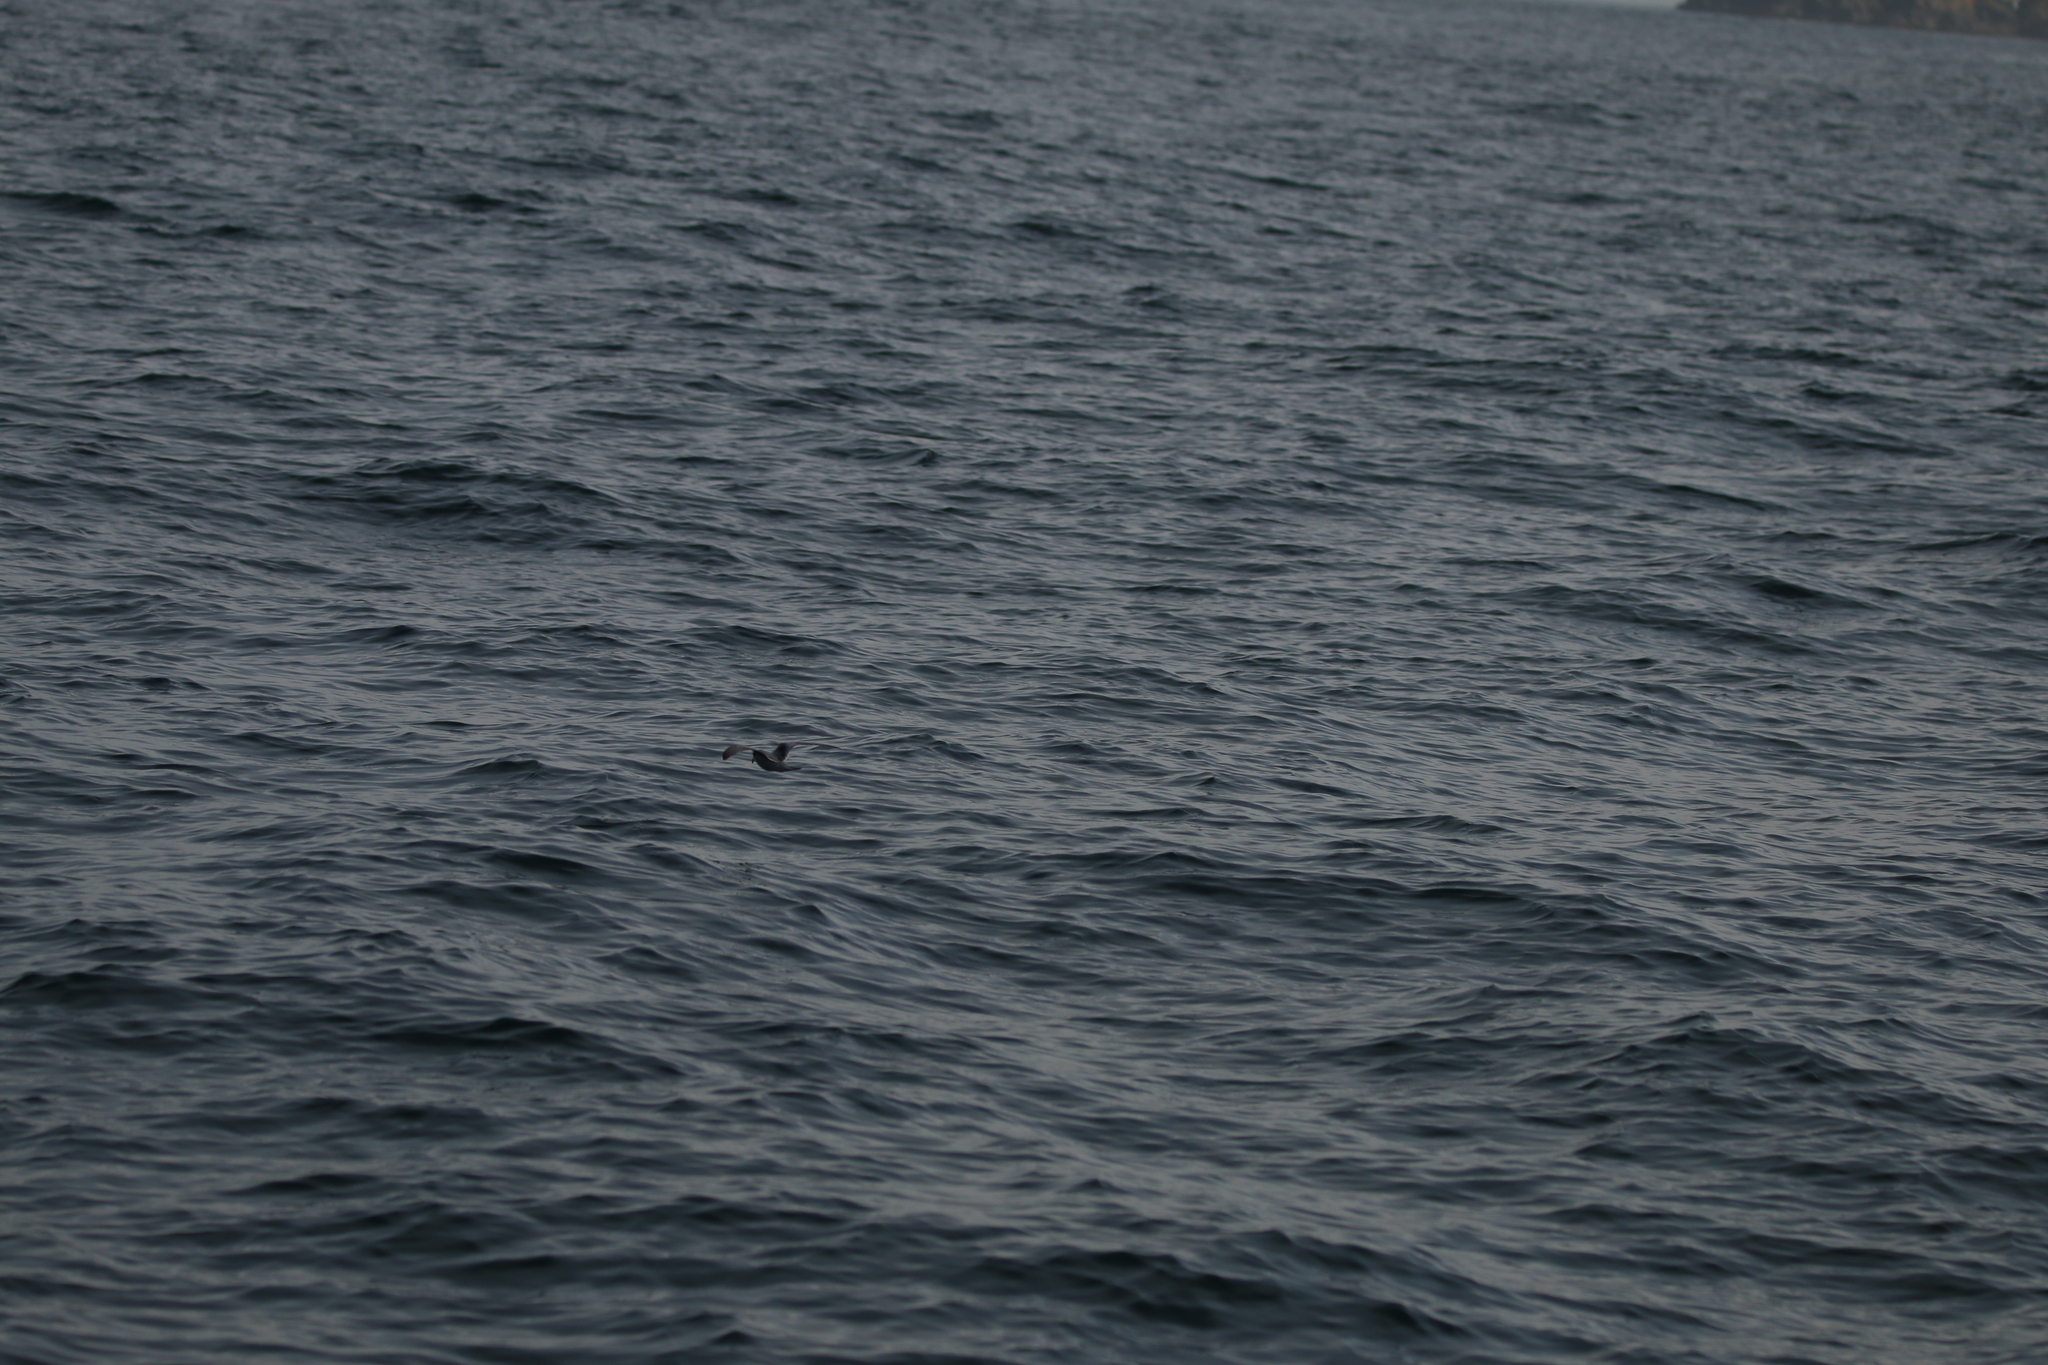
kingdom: Animalia
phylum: Chordata
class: Aves
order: Procellariiformes
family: Hydrobatidae
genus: Oceanodroma
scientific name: Oceanodroma furcata
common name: Fork-tailed storm-petrel
